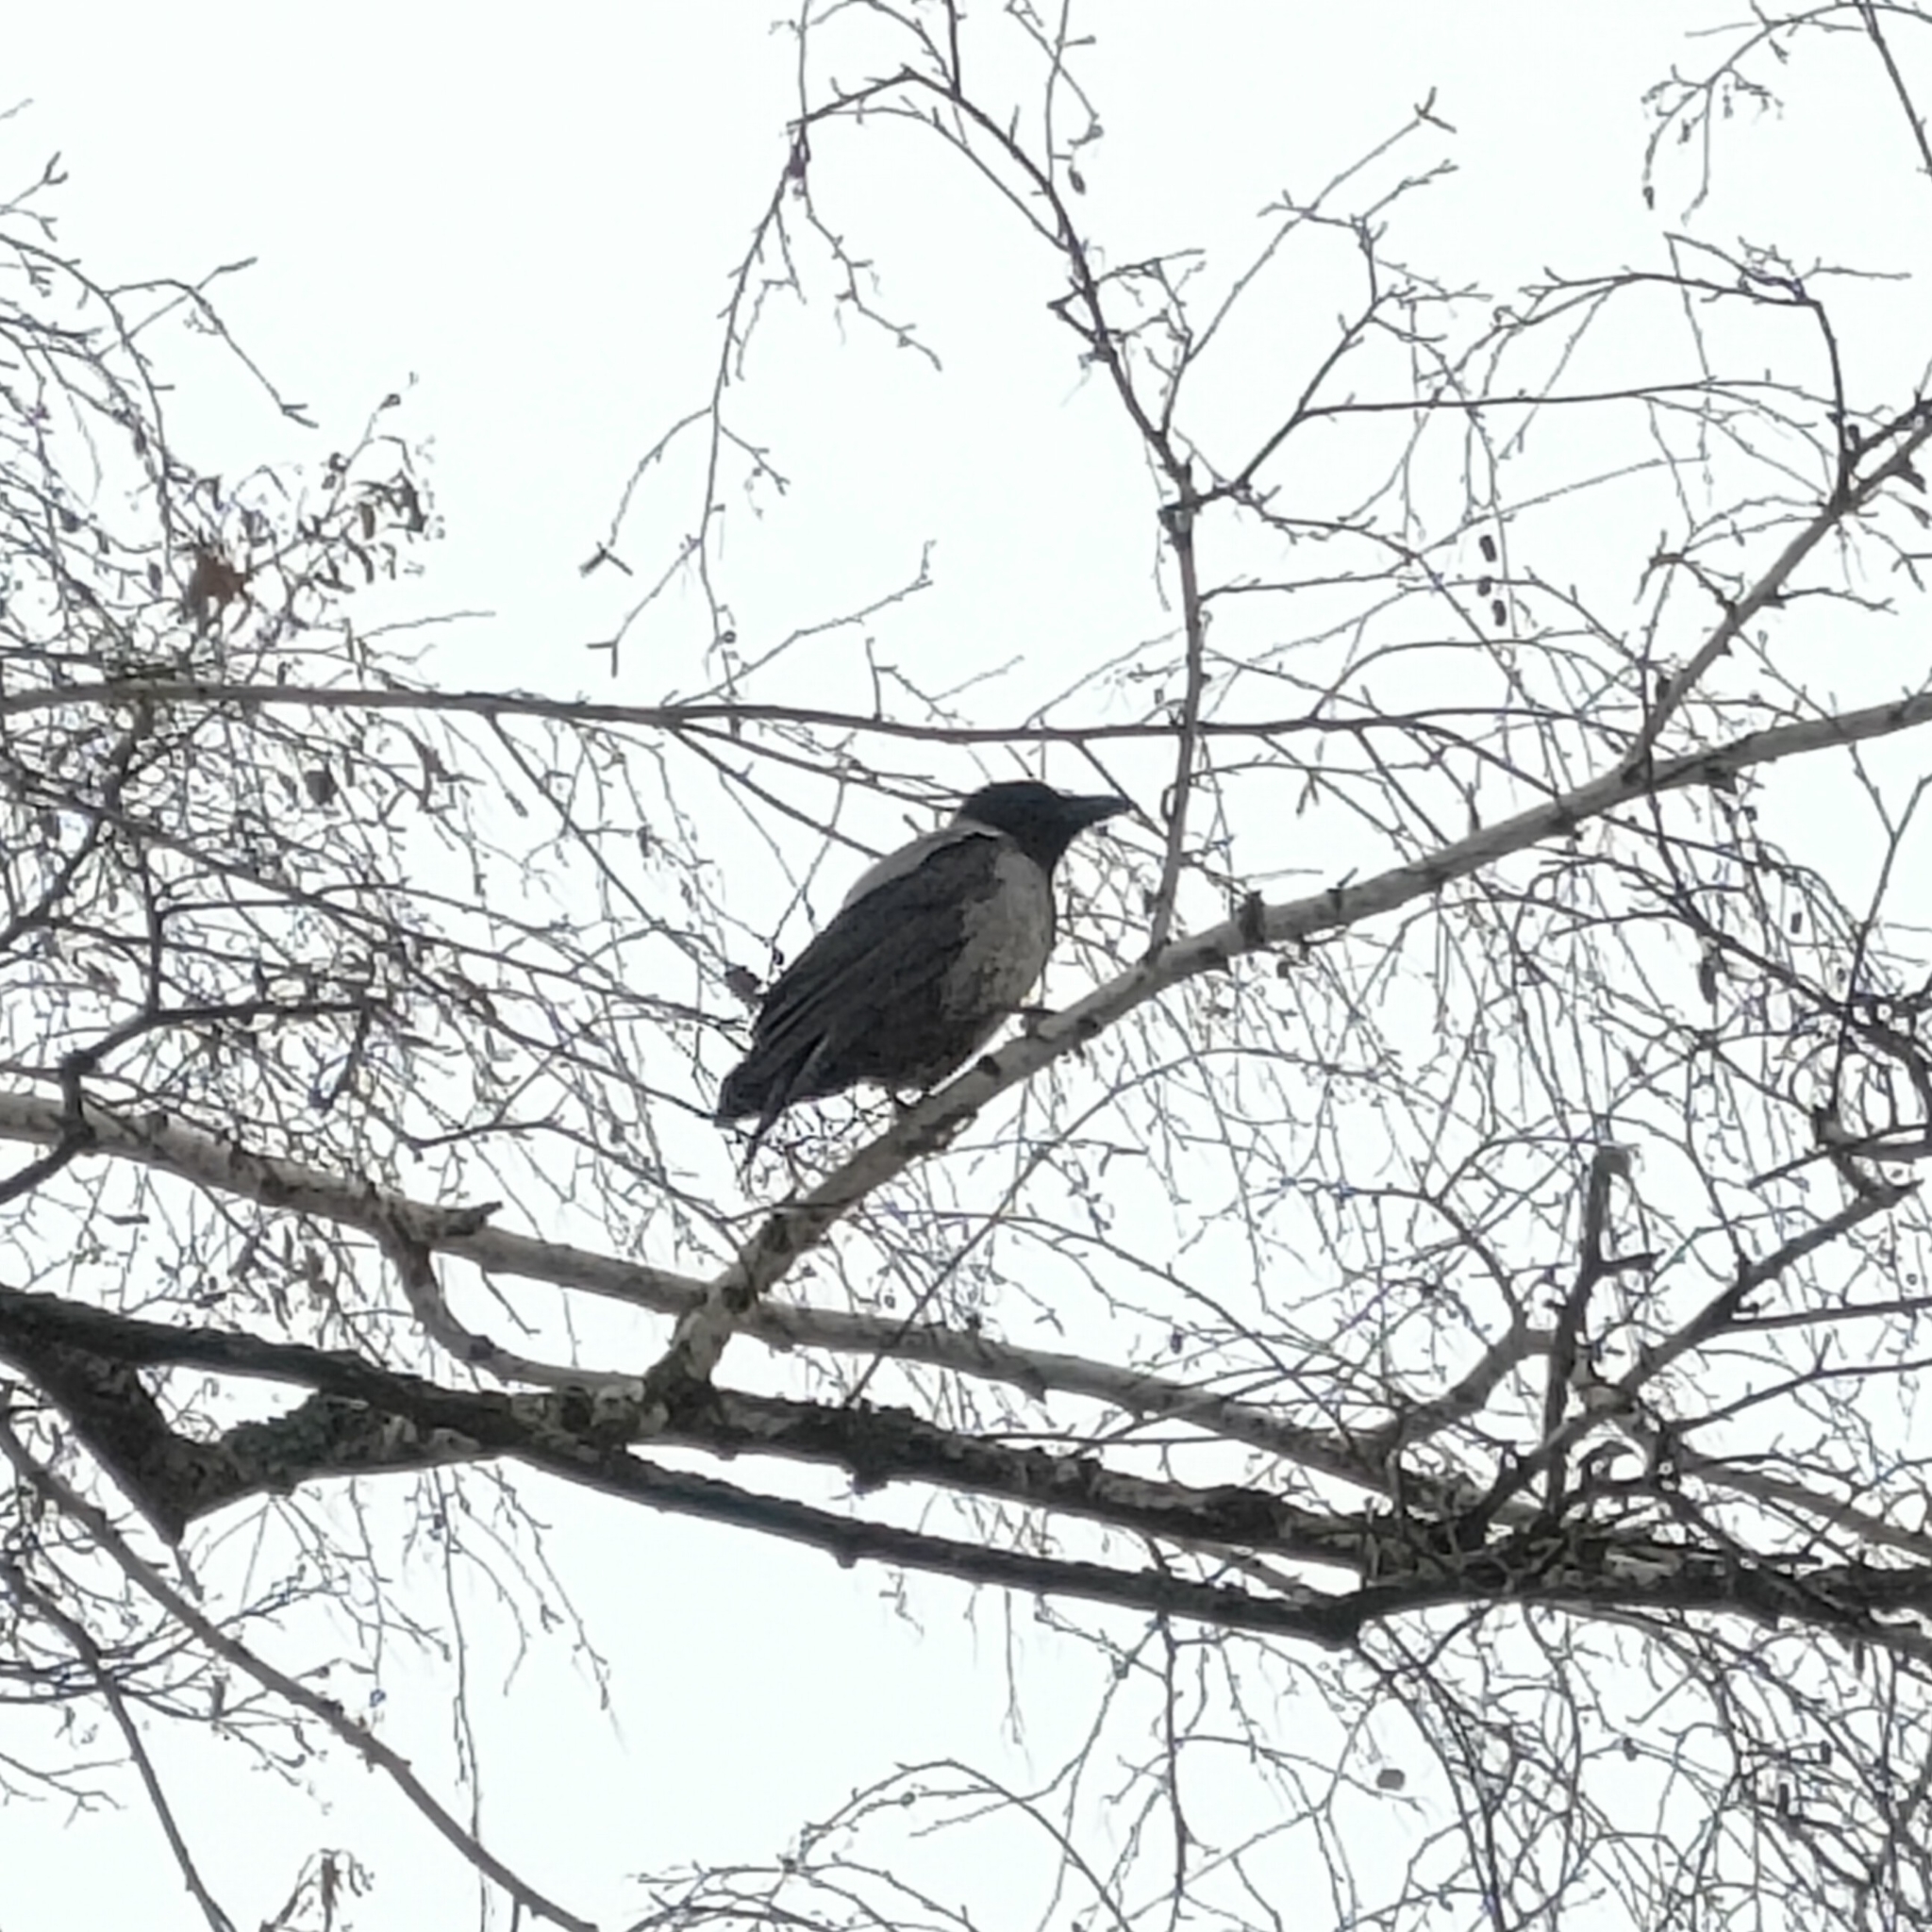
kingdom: Animalia
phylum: Chordata
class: Aves
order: Passeriformes
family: Corvidae
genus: Corvus
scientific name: Corvus cornix
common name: Hooded crow
